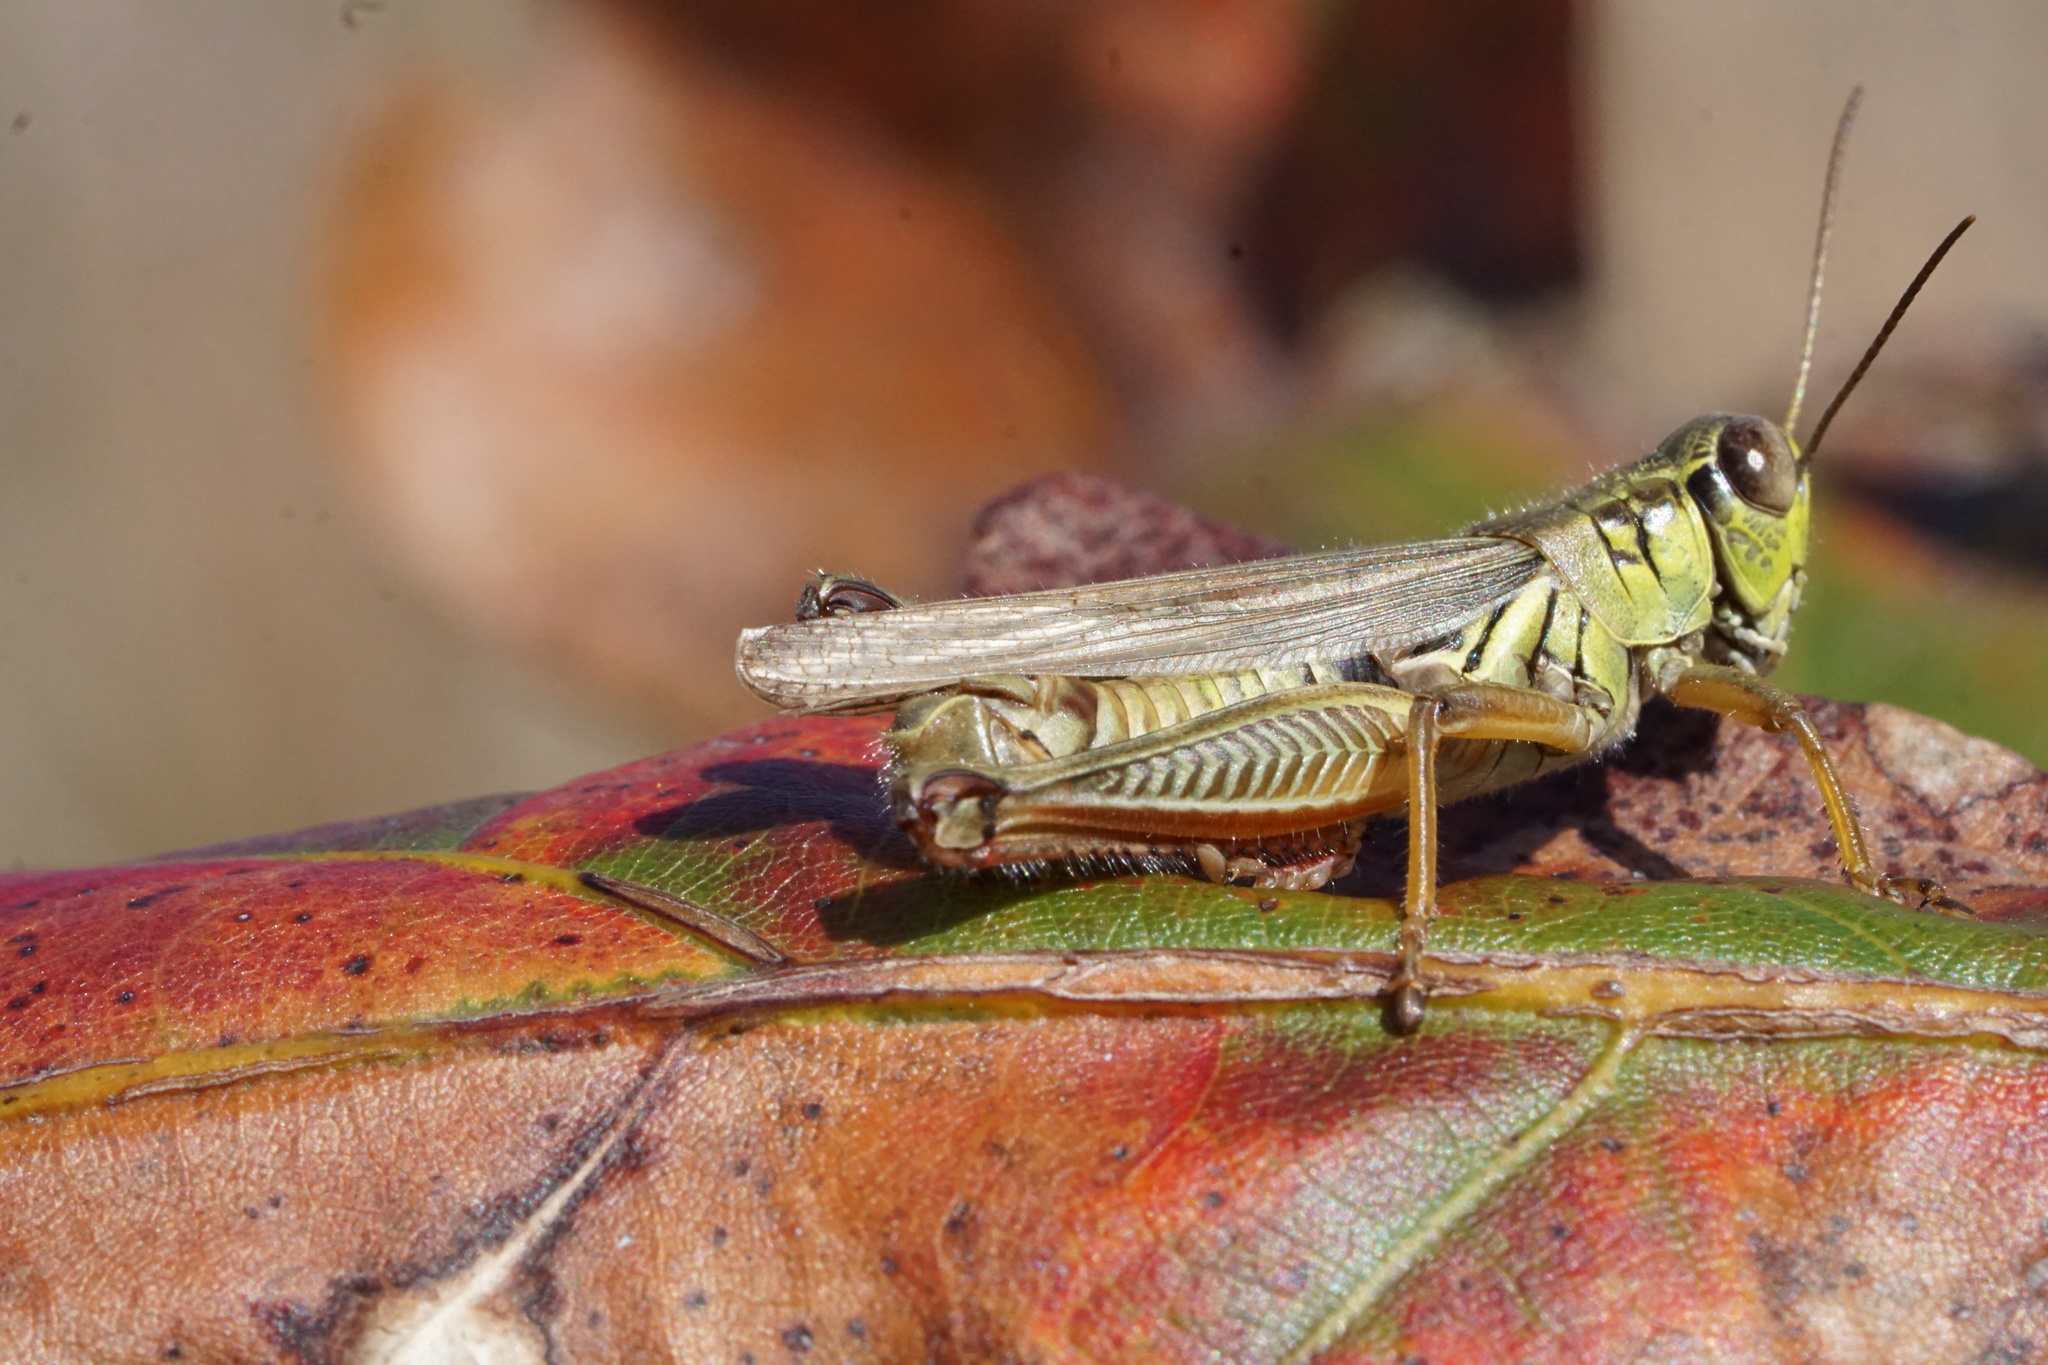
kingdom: Animalia
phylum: Arthropoda
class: Insecta
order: Orthoptera
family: Acrididae
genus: Melanoplus
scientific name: Melanoplus femurrubrum
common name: Red-legged grasshopper
